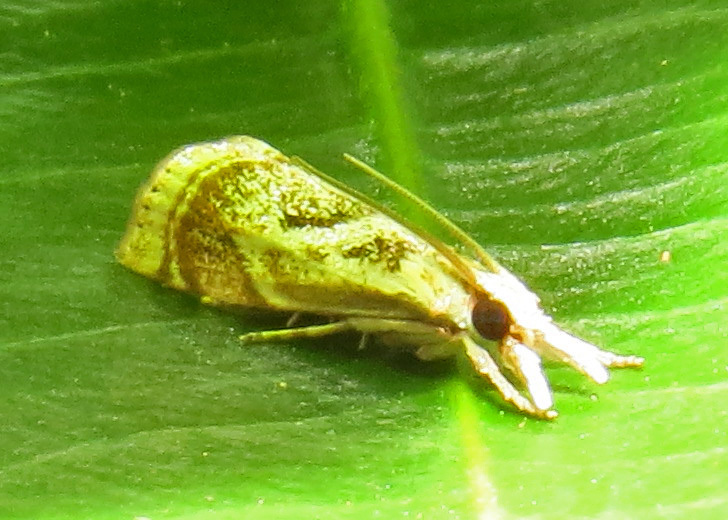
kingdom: Animalia
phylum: Arthropoda
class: Insecta
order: Lepidoptera
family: Crambidae
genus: Microcrambus
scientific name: Microcrambus elegans
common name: Elegant grass-veneer
